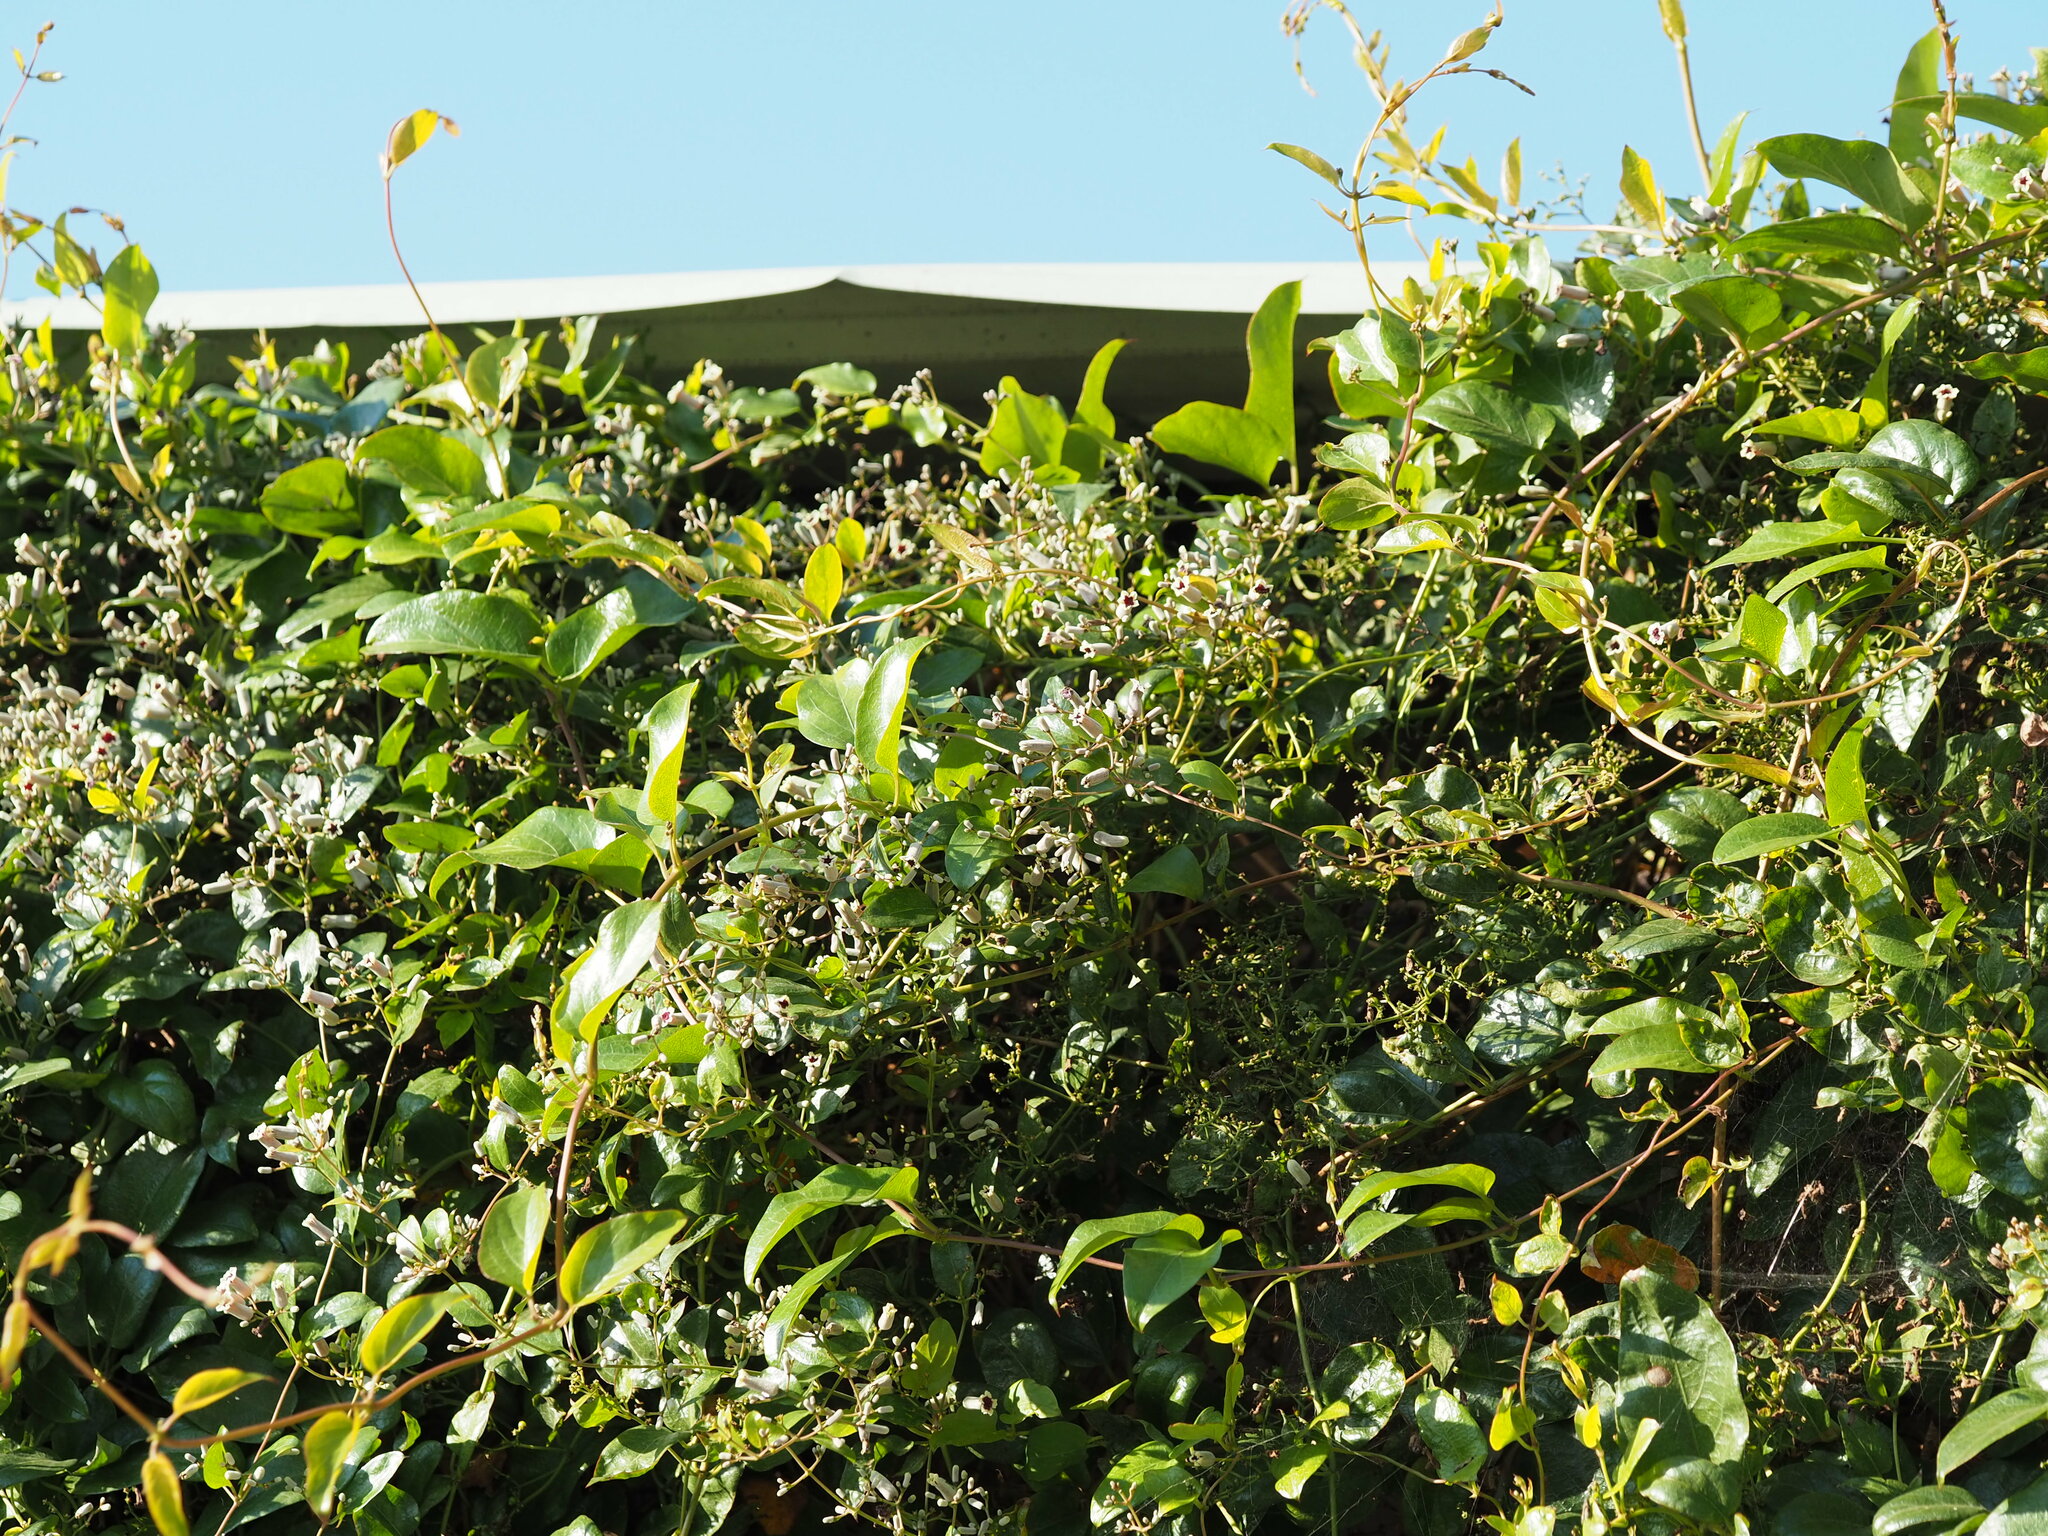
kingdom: Plantae
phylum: Tracheophyta
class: Magnoliopsida
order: Gentianales
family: Rubiaceae
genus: Paederia
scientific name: Paederia foetida
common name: Stinkvine
